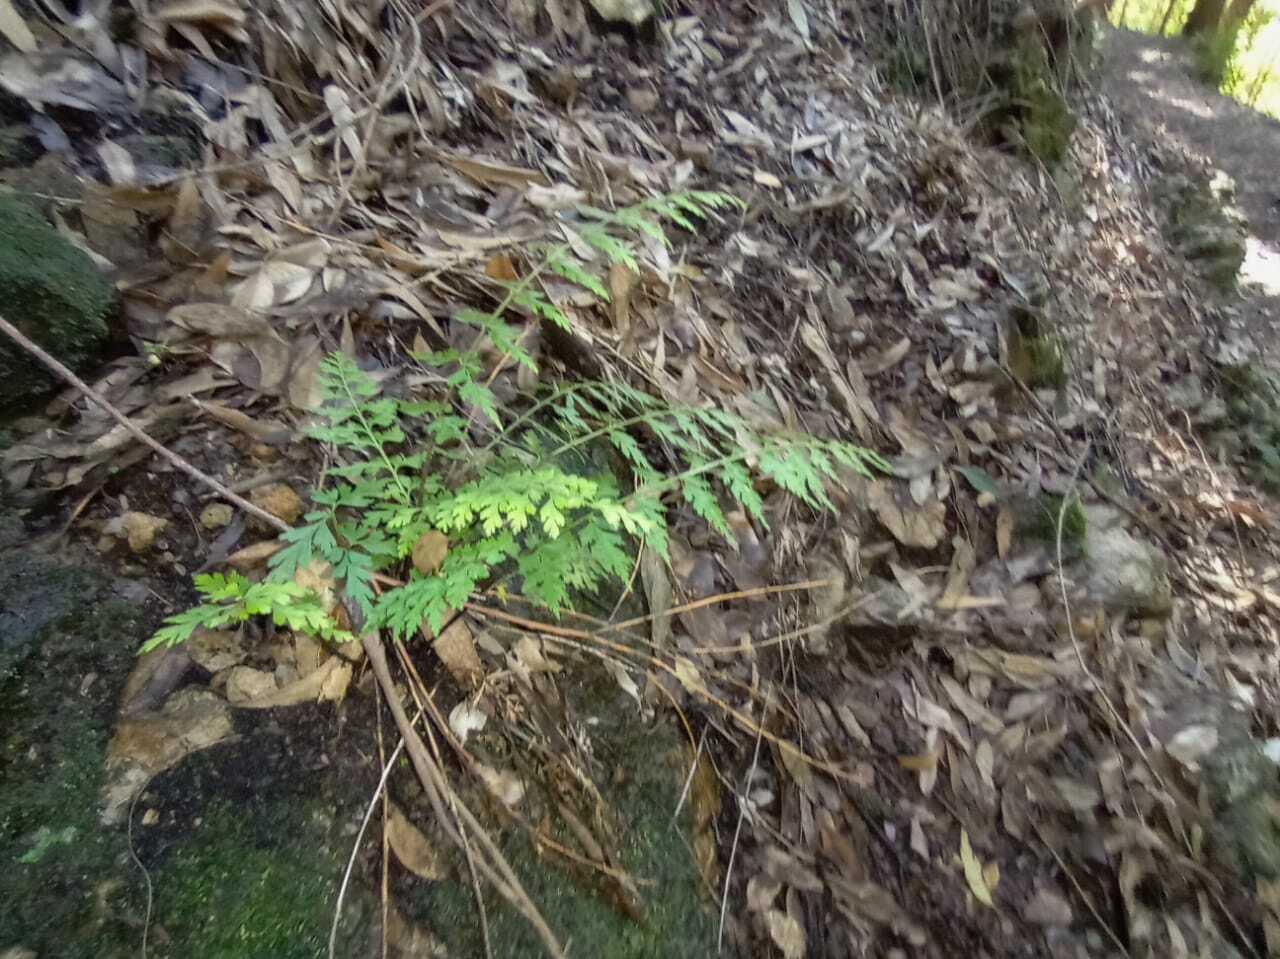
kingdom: Plantae
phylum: Tracheophyta
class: Polypodiopsida
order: Polypodiales
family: Aspleniaceae
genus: Asplenium
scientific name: Asplenium aethiopicum
